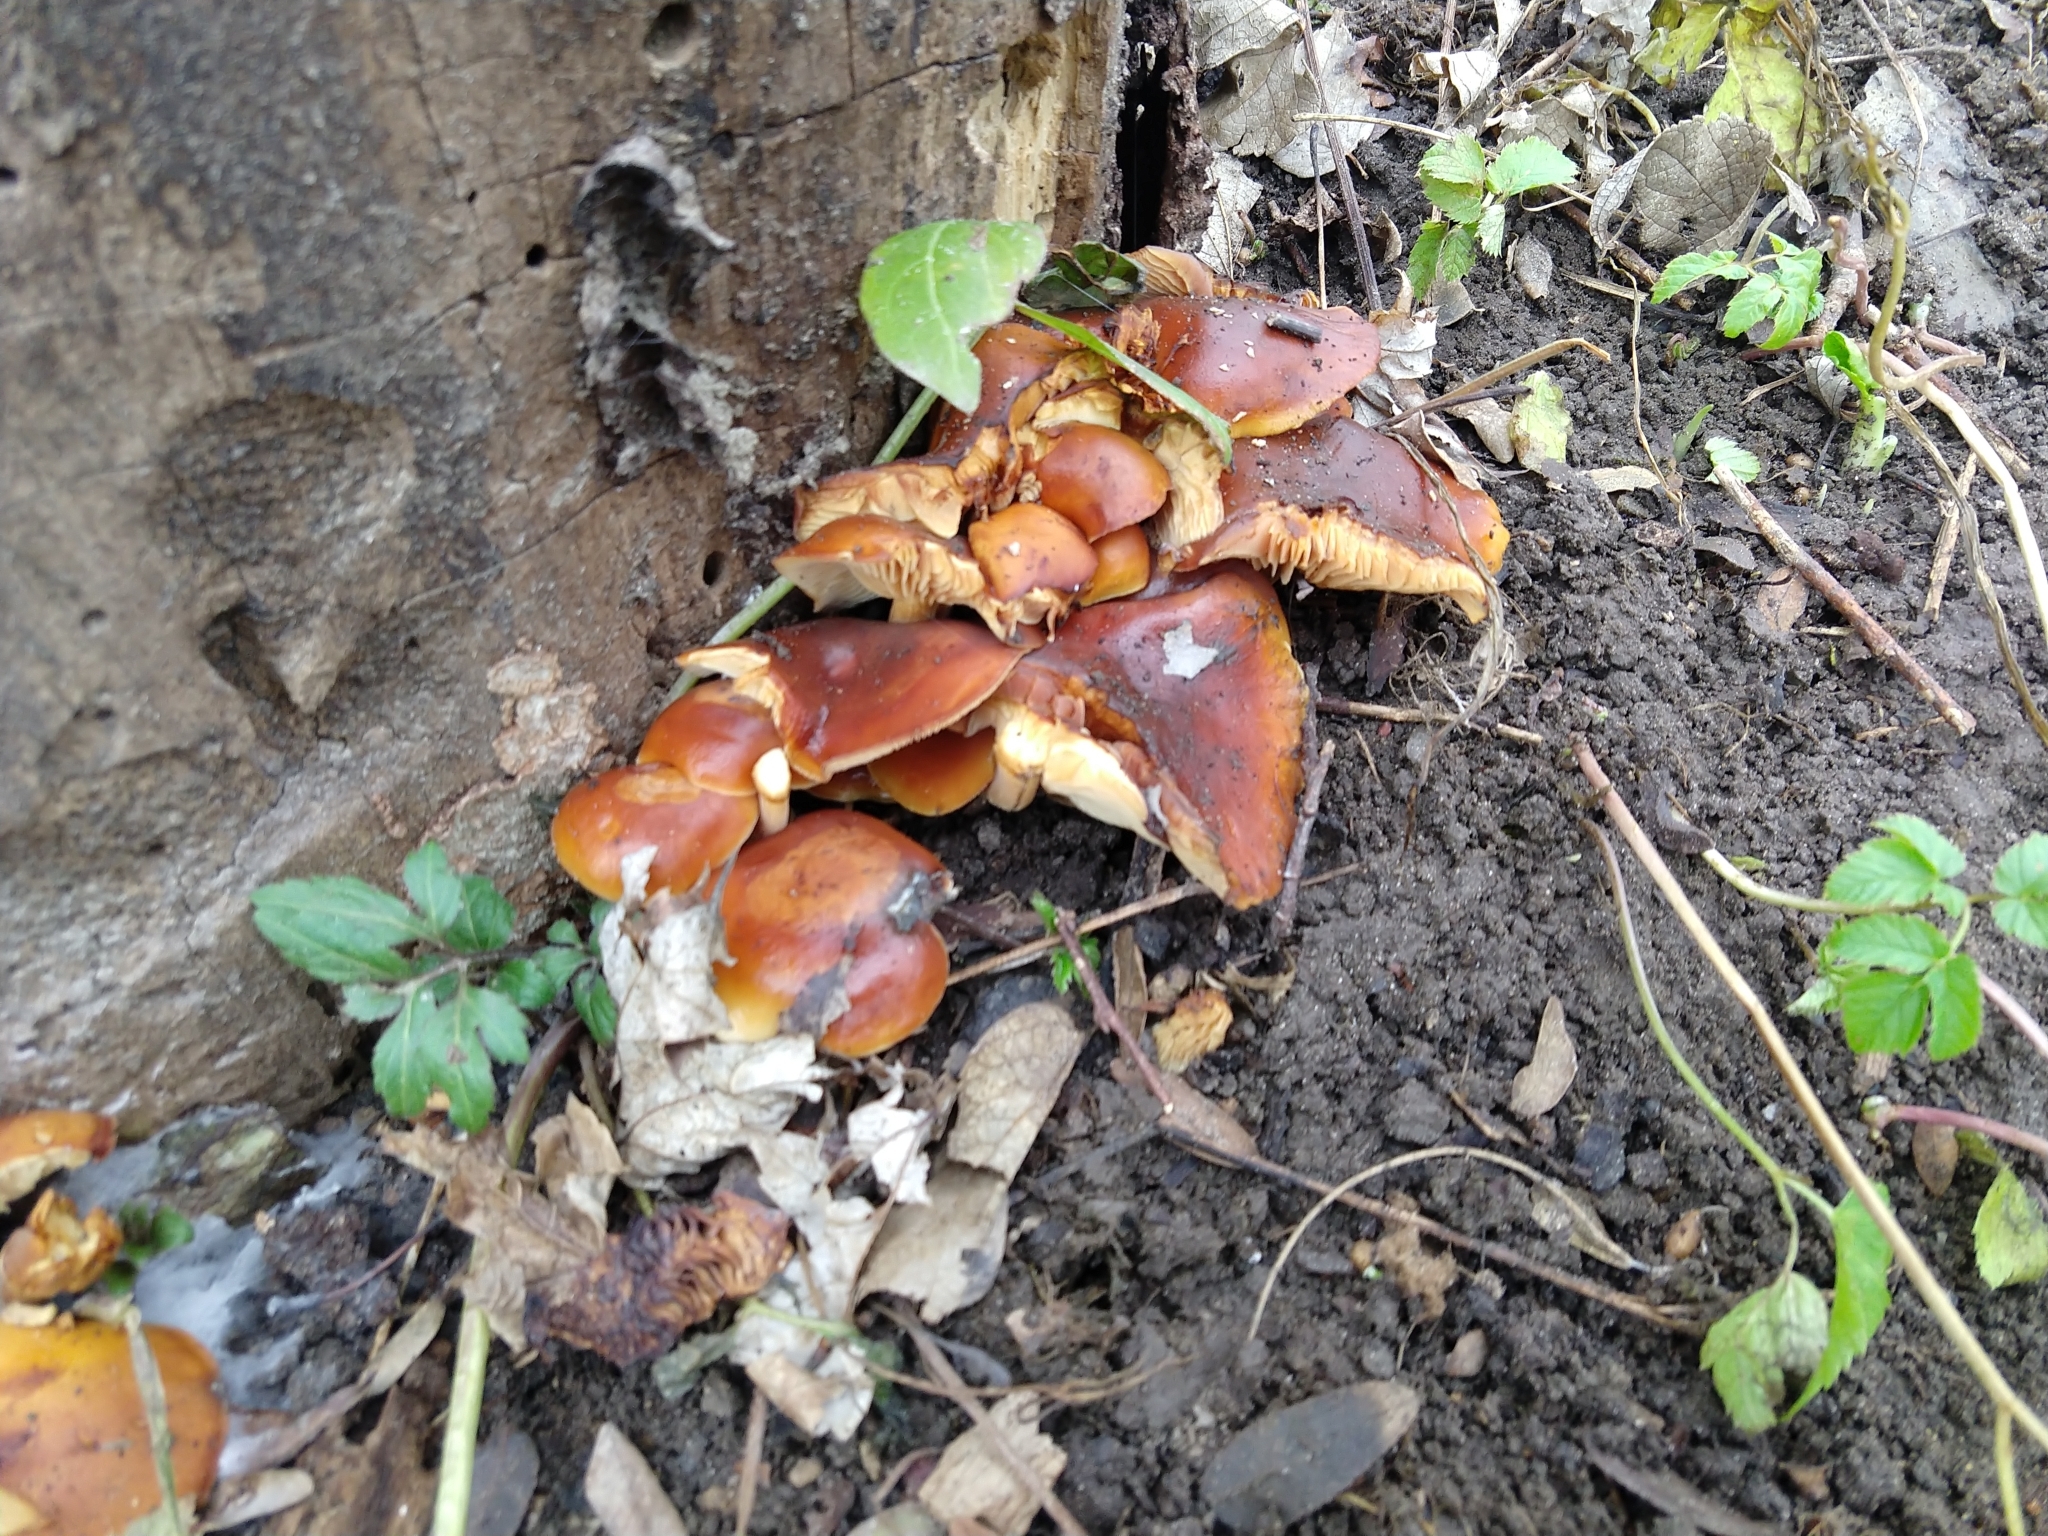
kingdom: Fungi
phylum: Basidiomycota
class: Agaricomycetes
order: Agaricales
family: Physalacriaceae
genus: Flammulina
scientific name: Flammulina velutipes
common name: Velvet shank
